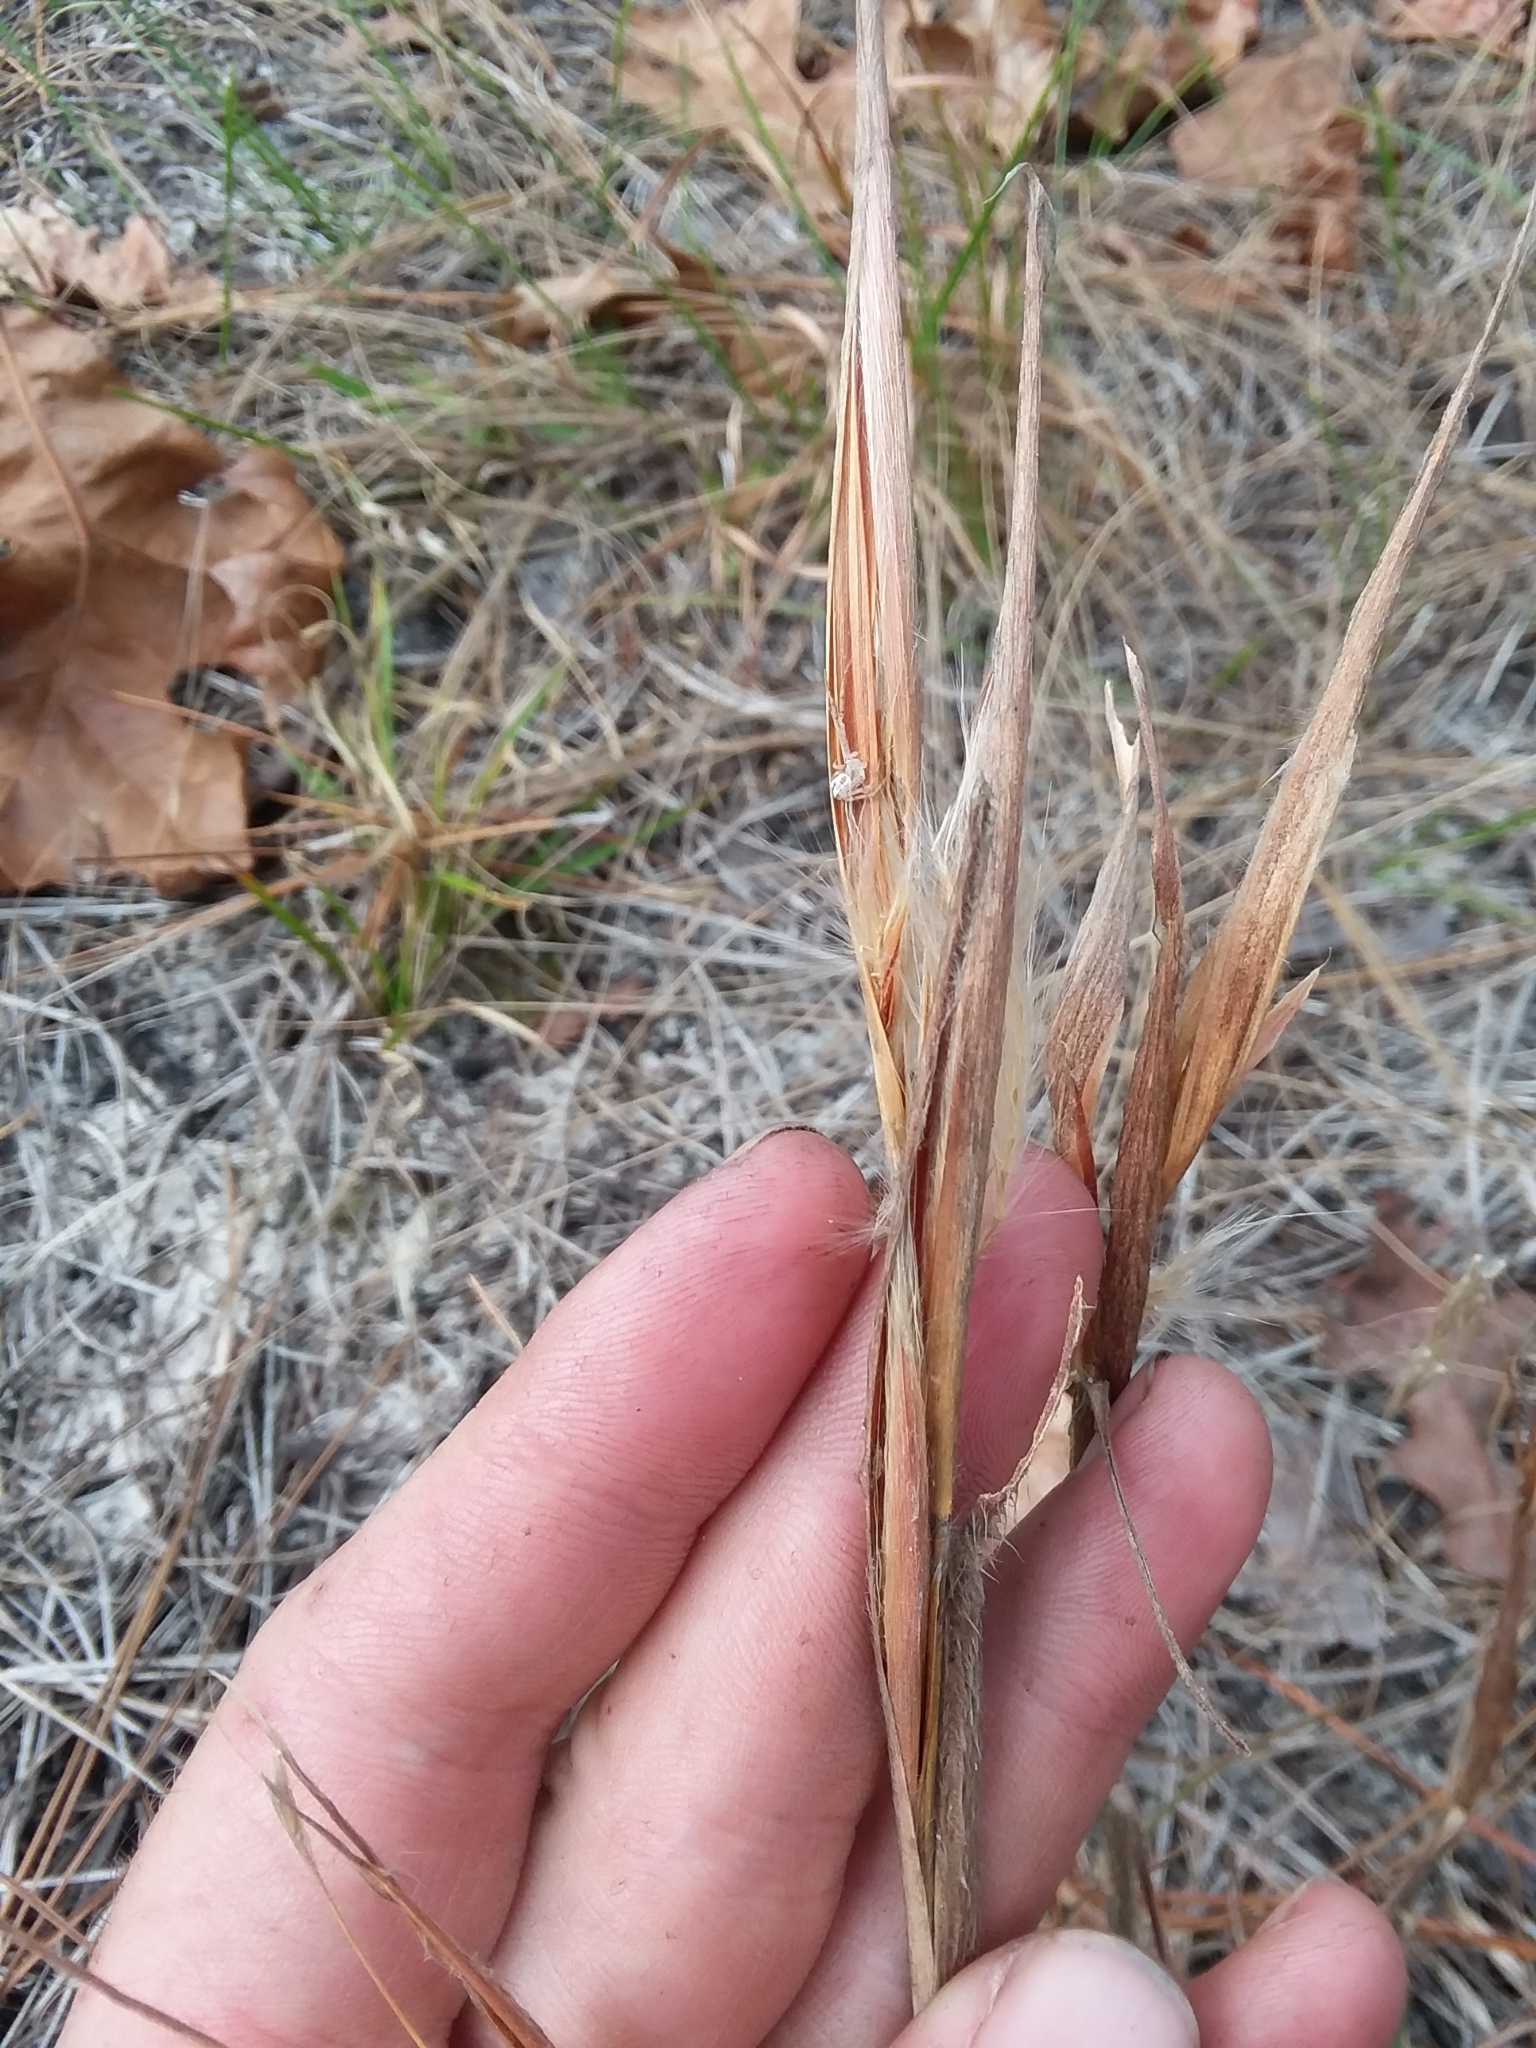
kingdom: Plantae
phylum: Tracheophyta
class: Liliopsida
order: Poales
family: Poaceae
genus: Andropogon
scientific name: Andropogon gyrans
